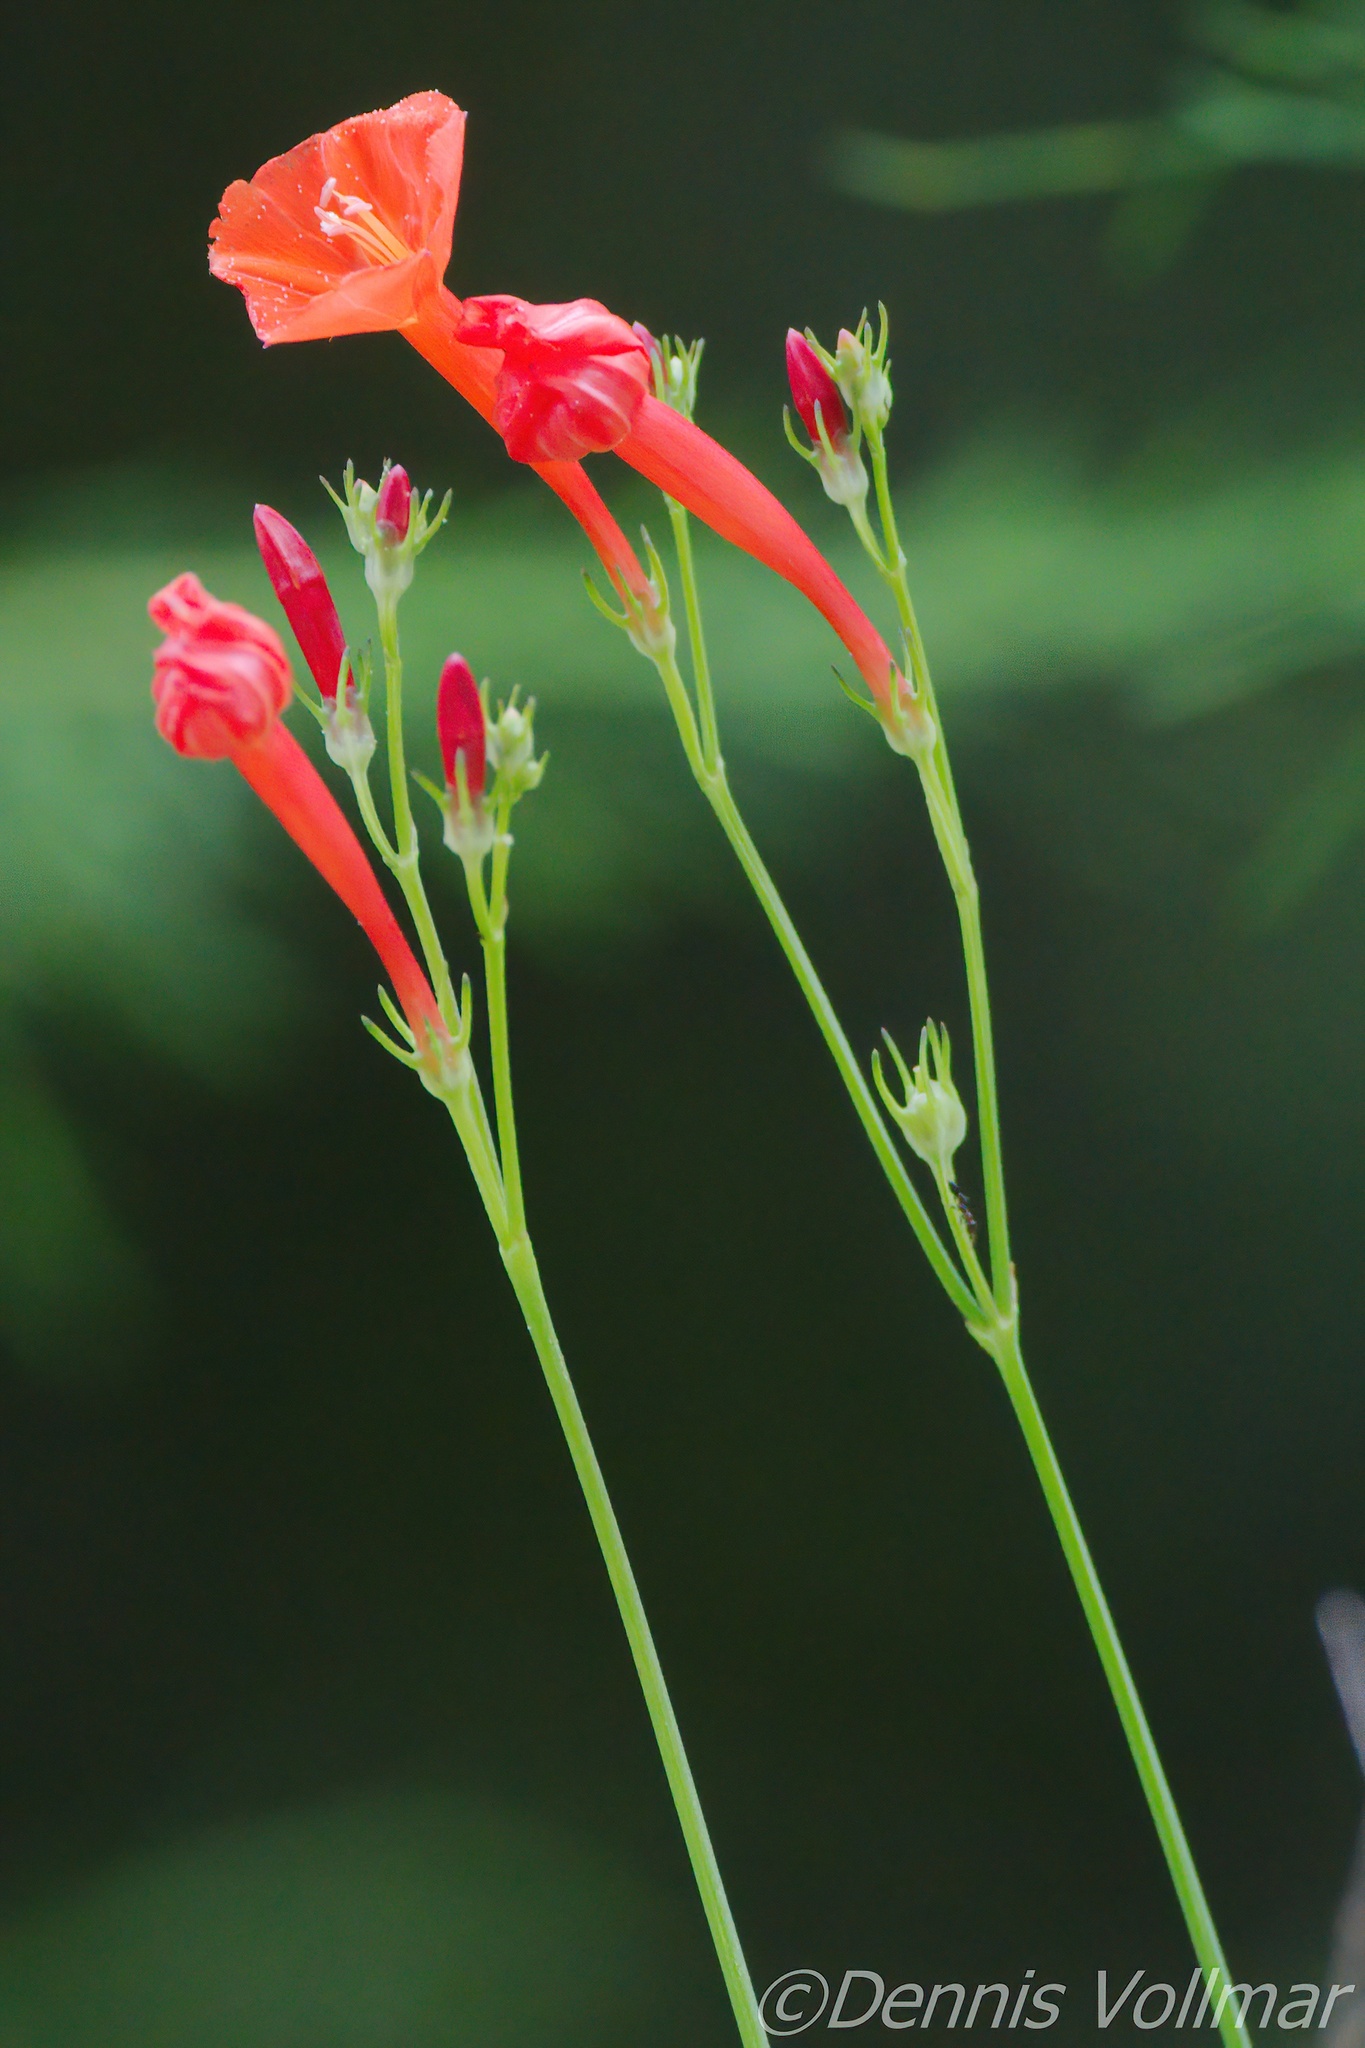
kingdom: Plantae
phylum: Tracheophyta
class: Magnoliopsida
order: Solanales
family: Convolvulaceae
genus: Ipomoea
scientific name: Ipomoea hederifolia
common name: Ivy-leaf morning-glory
